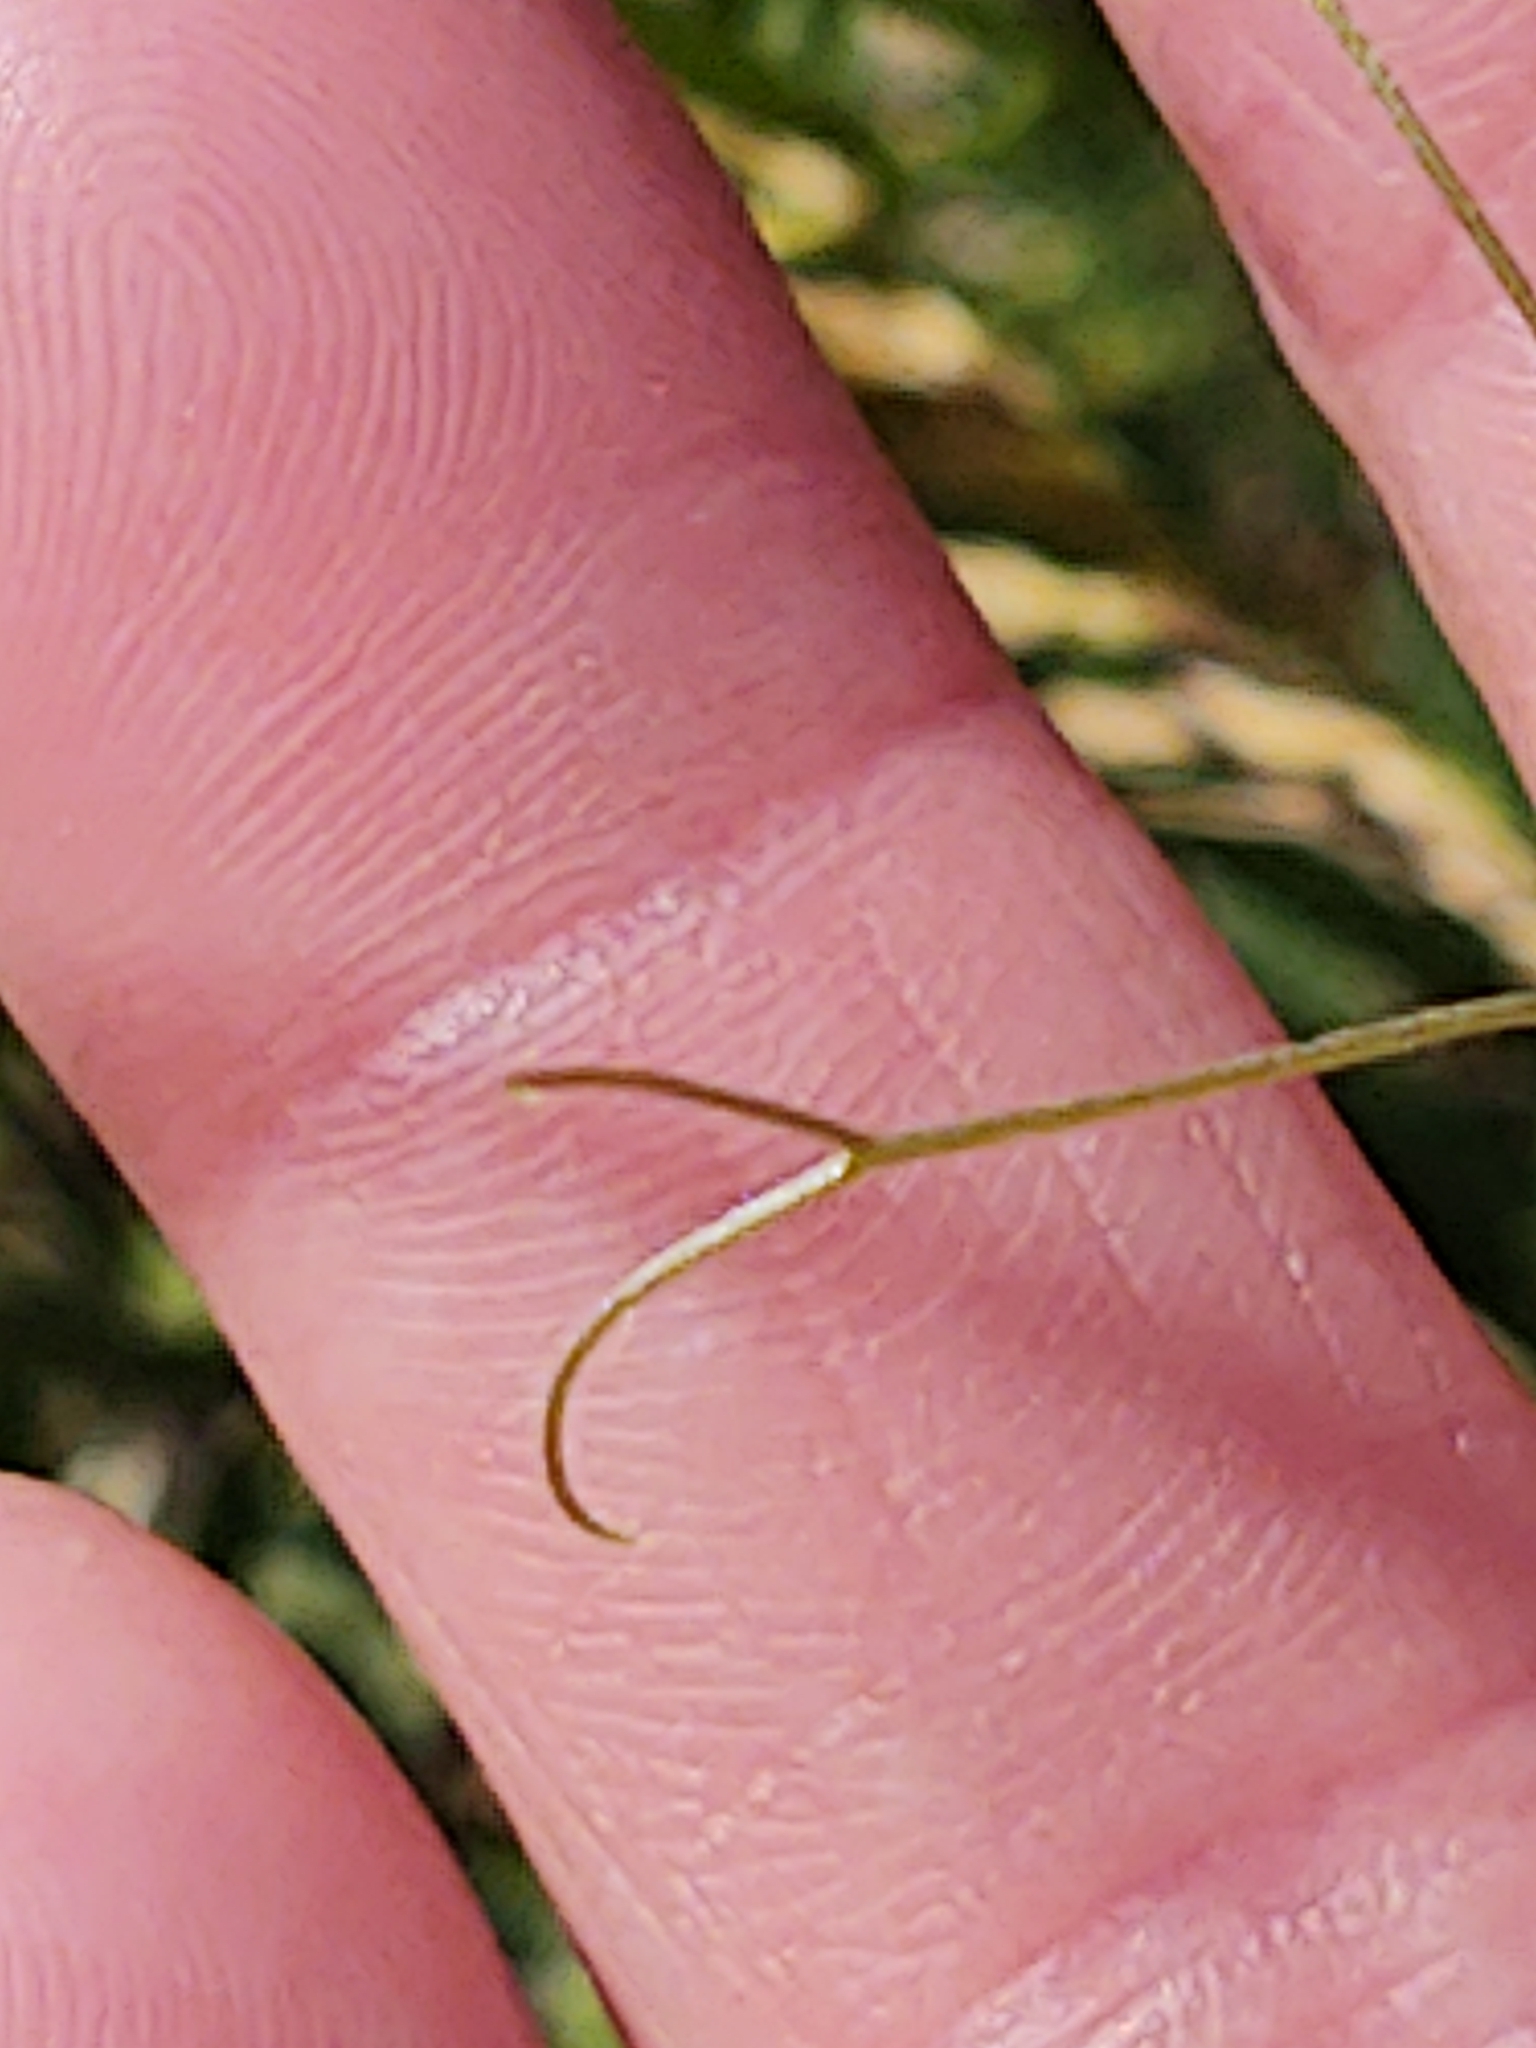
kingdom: Plantae
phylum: Tracheophyta
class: Magnoliopsida
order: Fabales
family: Fabaceae
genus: Vicia
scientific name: Vicia cracca
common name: Bird vetch
